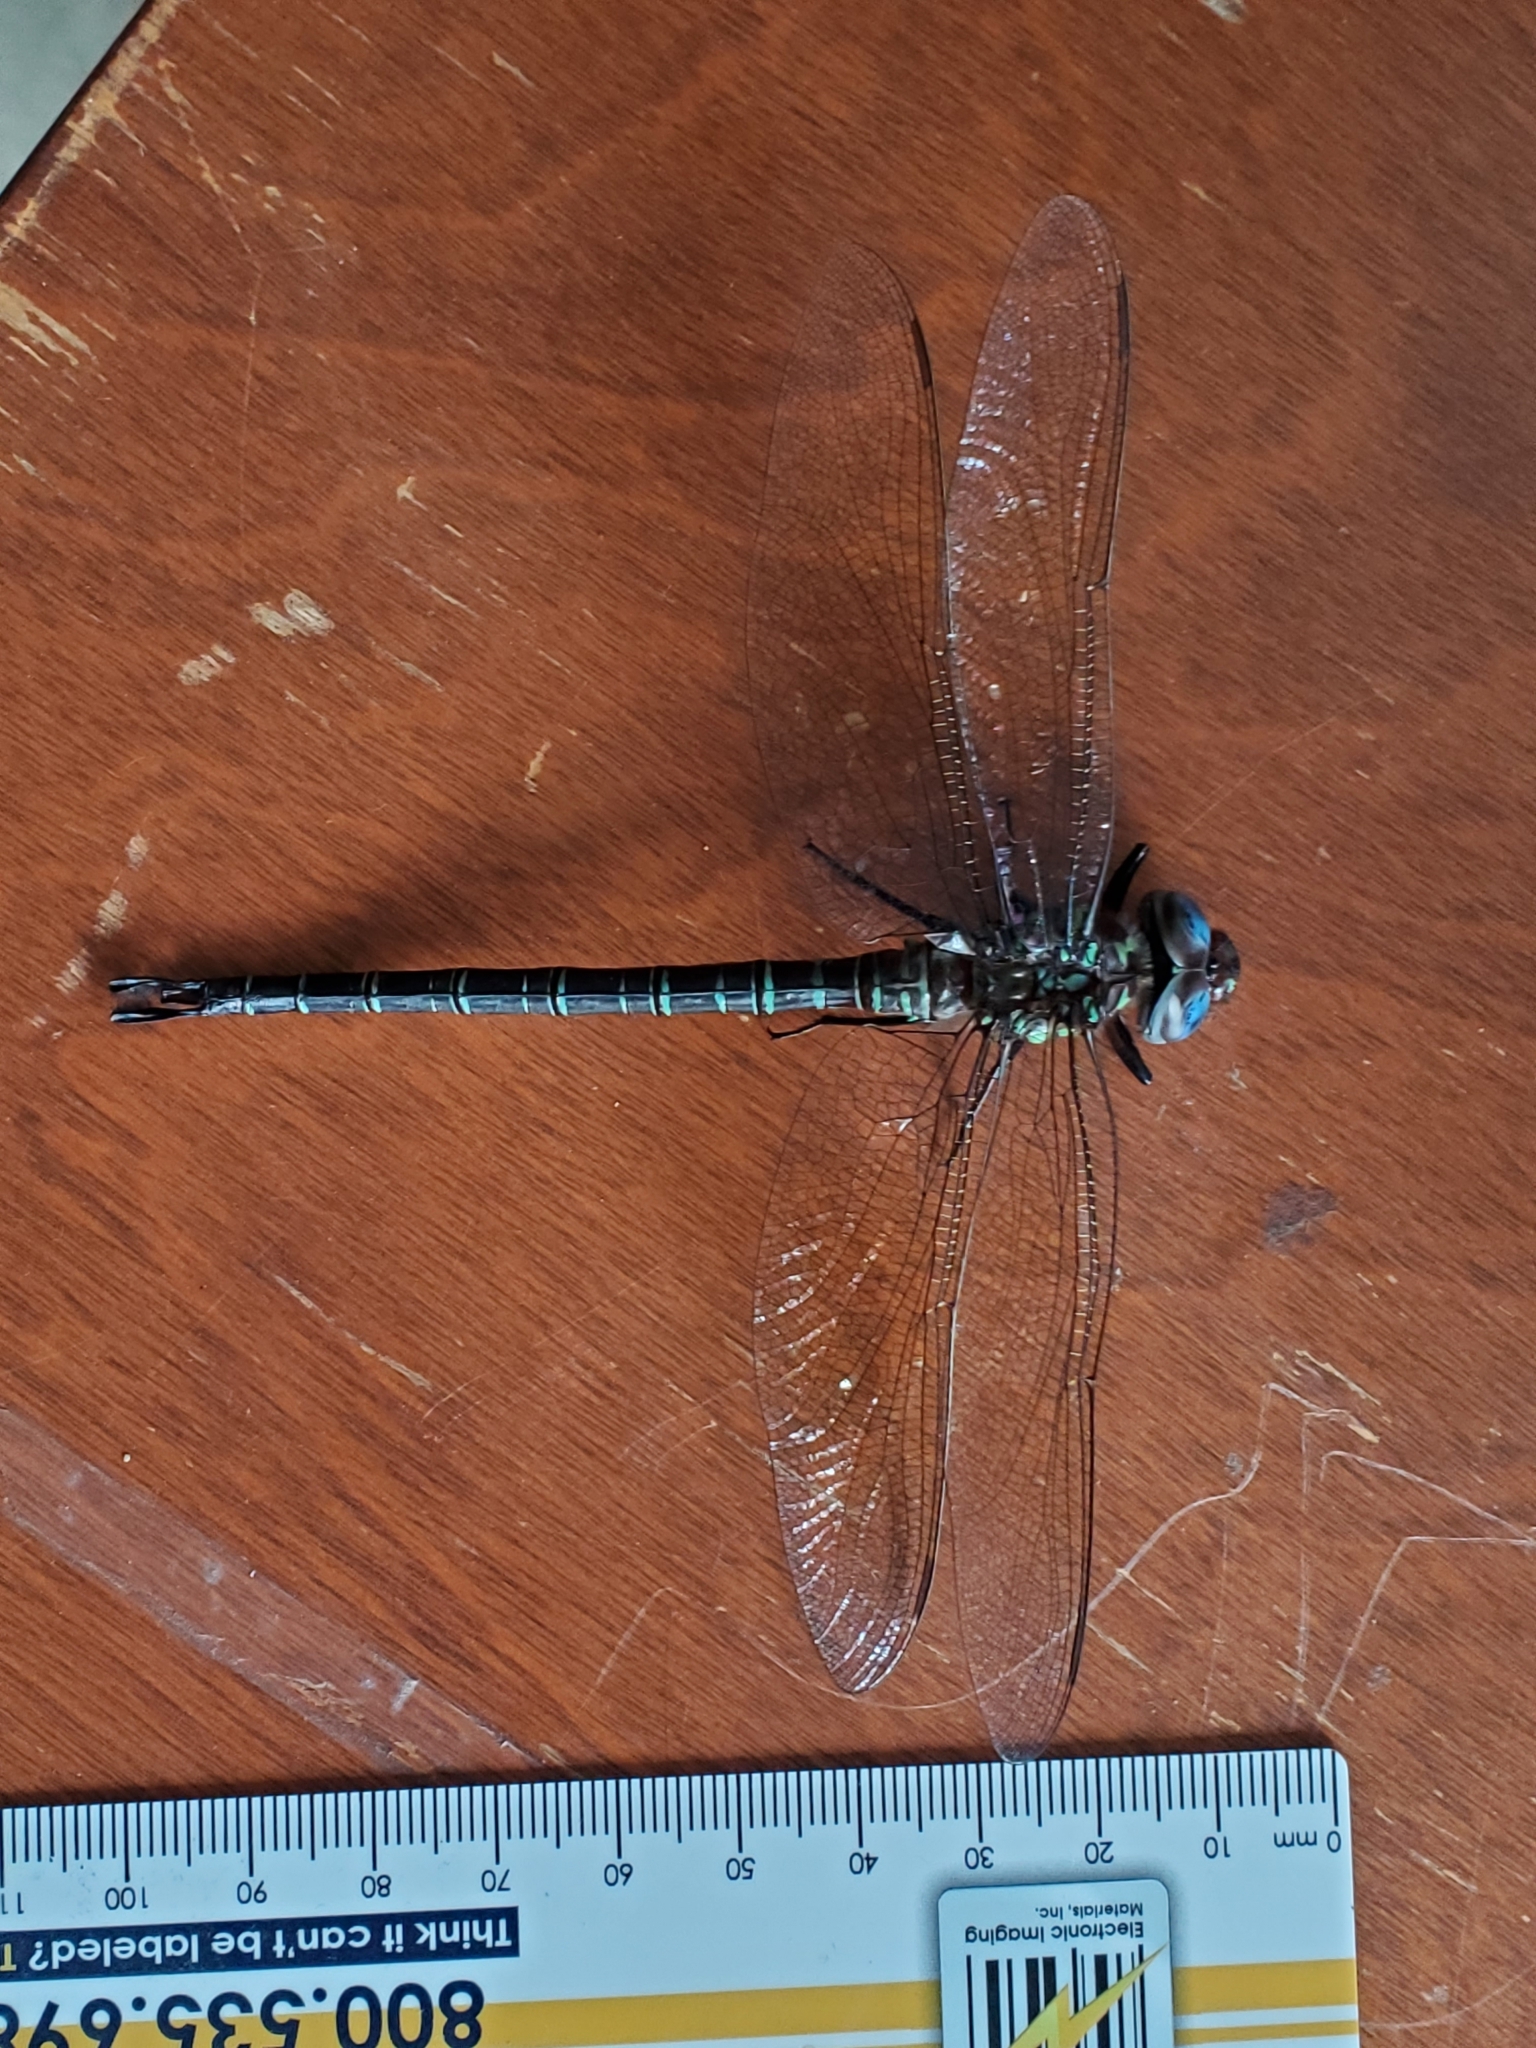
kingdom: Animalia
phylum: Arthropoda
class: Insecta
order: Odonata
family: Aeshnidae
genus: Epiaeschna
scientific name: Epiaeschna heros
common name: Swamp darner
